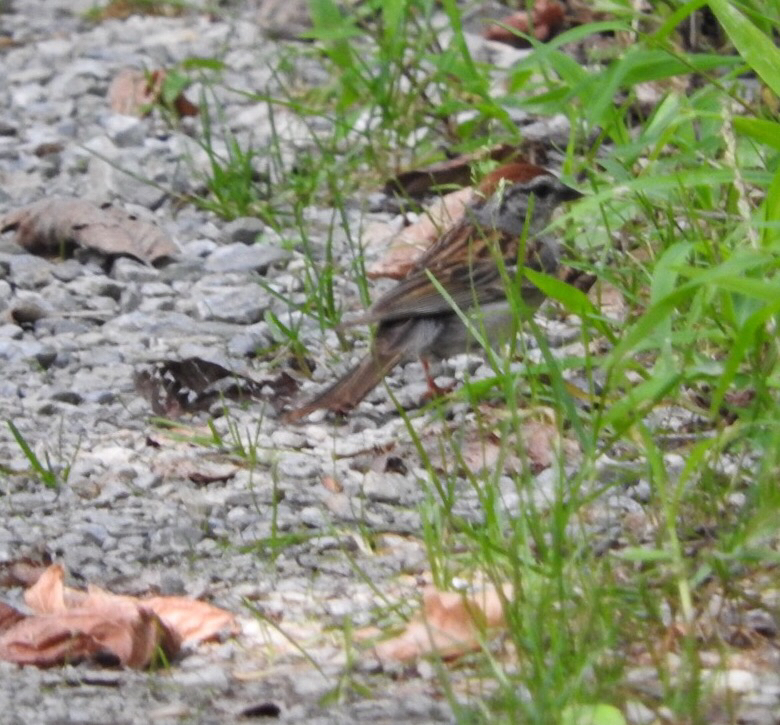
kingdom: Animalia
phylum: Chordata
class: Aves
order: Passeriformes
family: Passerellidae
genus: Spizella
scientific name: Spizella passerina
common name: Chipping sparrow
